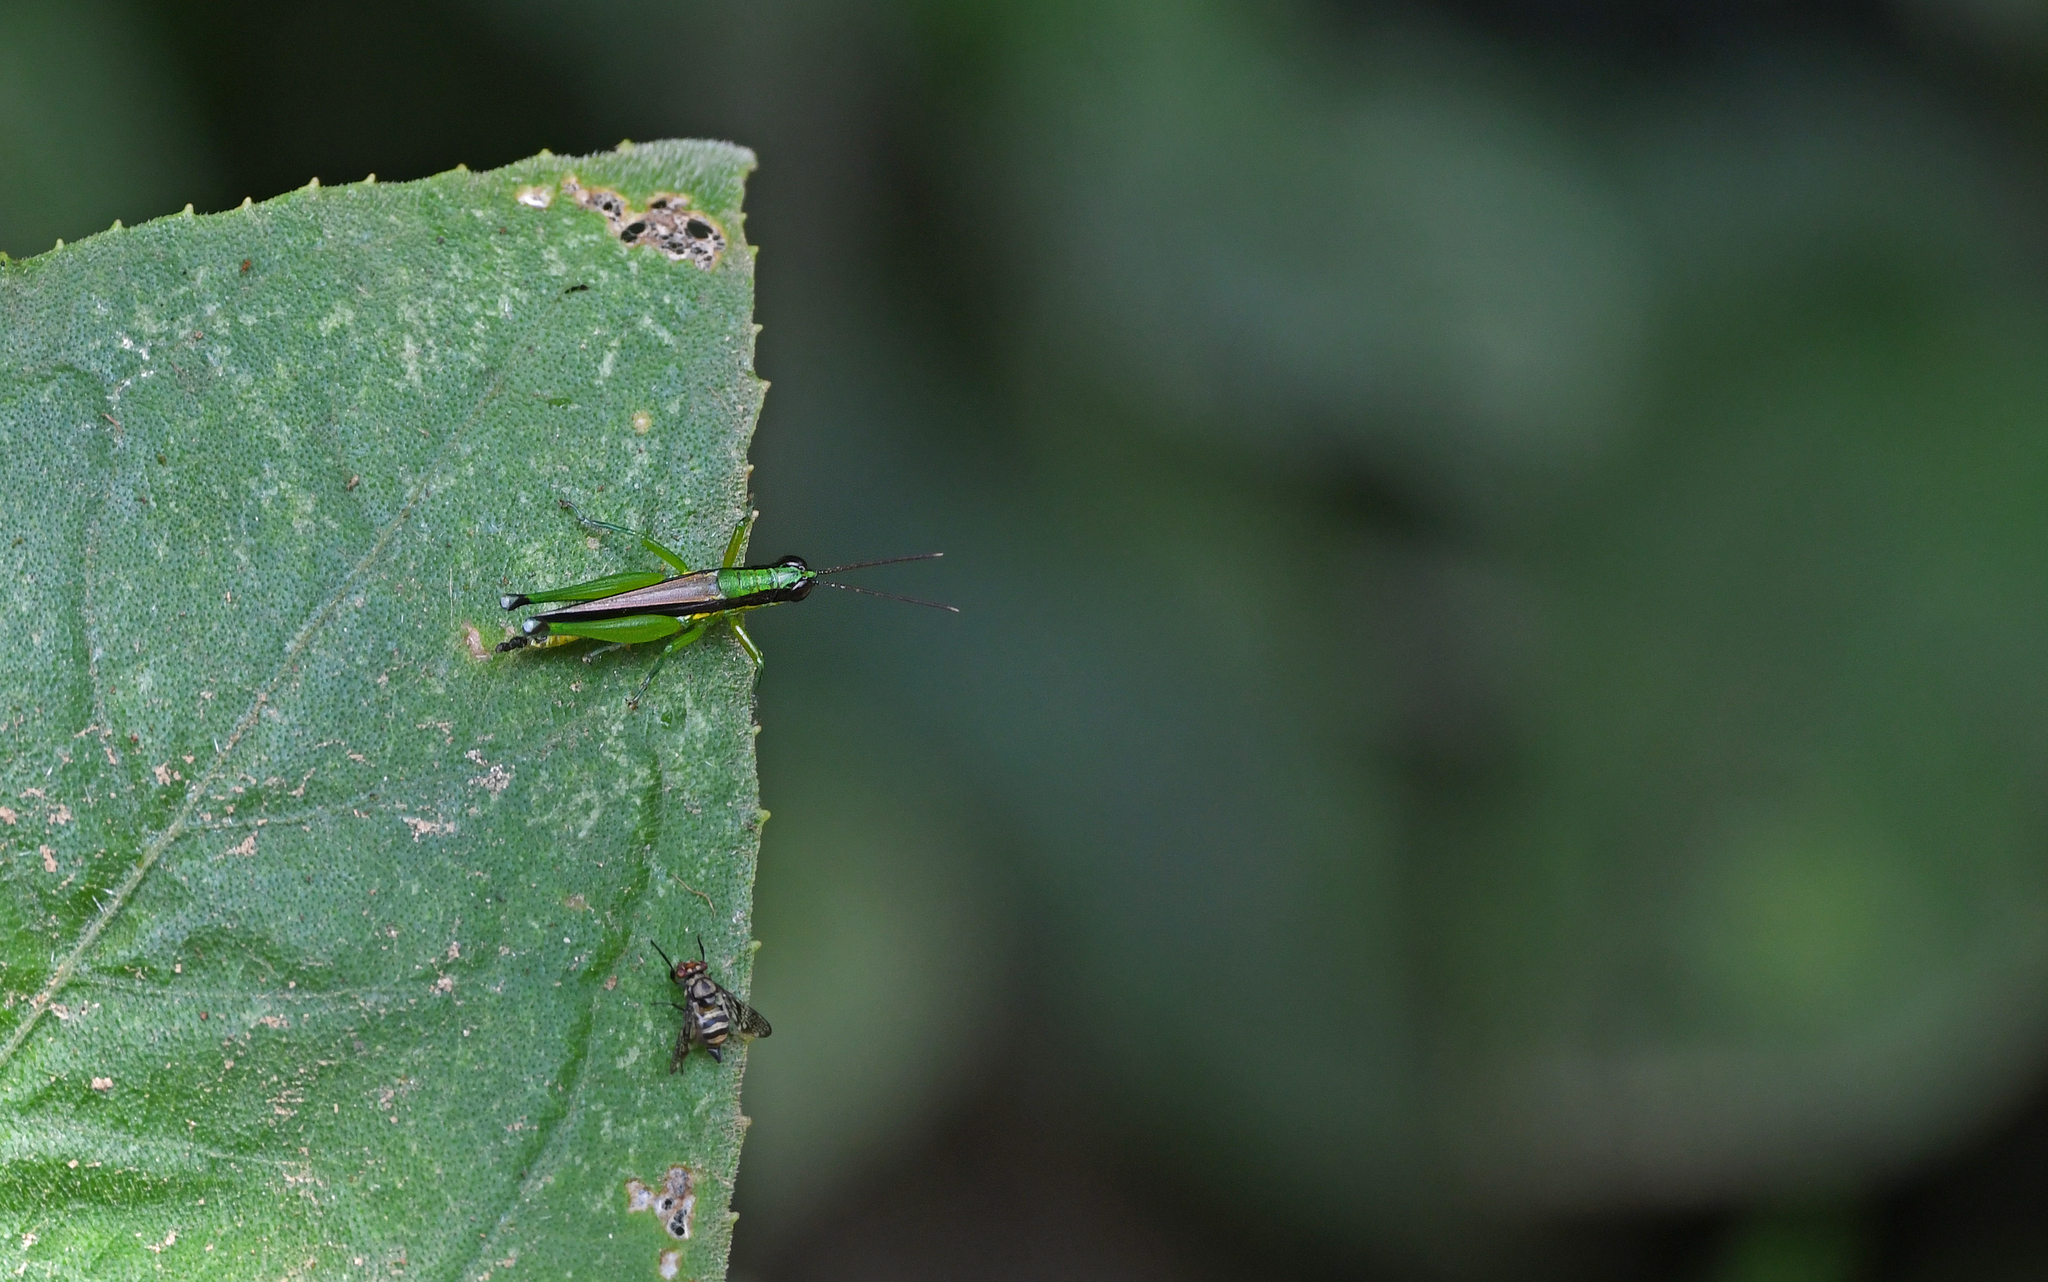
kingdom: Animalia
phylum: Arthropoda
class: Insecta
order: Orthoptera
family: Acrididae
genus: Stenopola
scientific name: Stenopola boliviana
